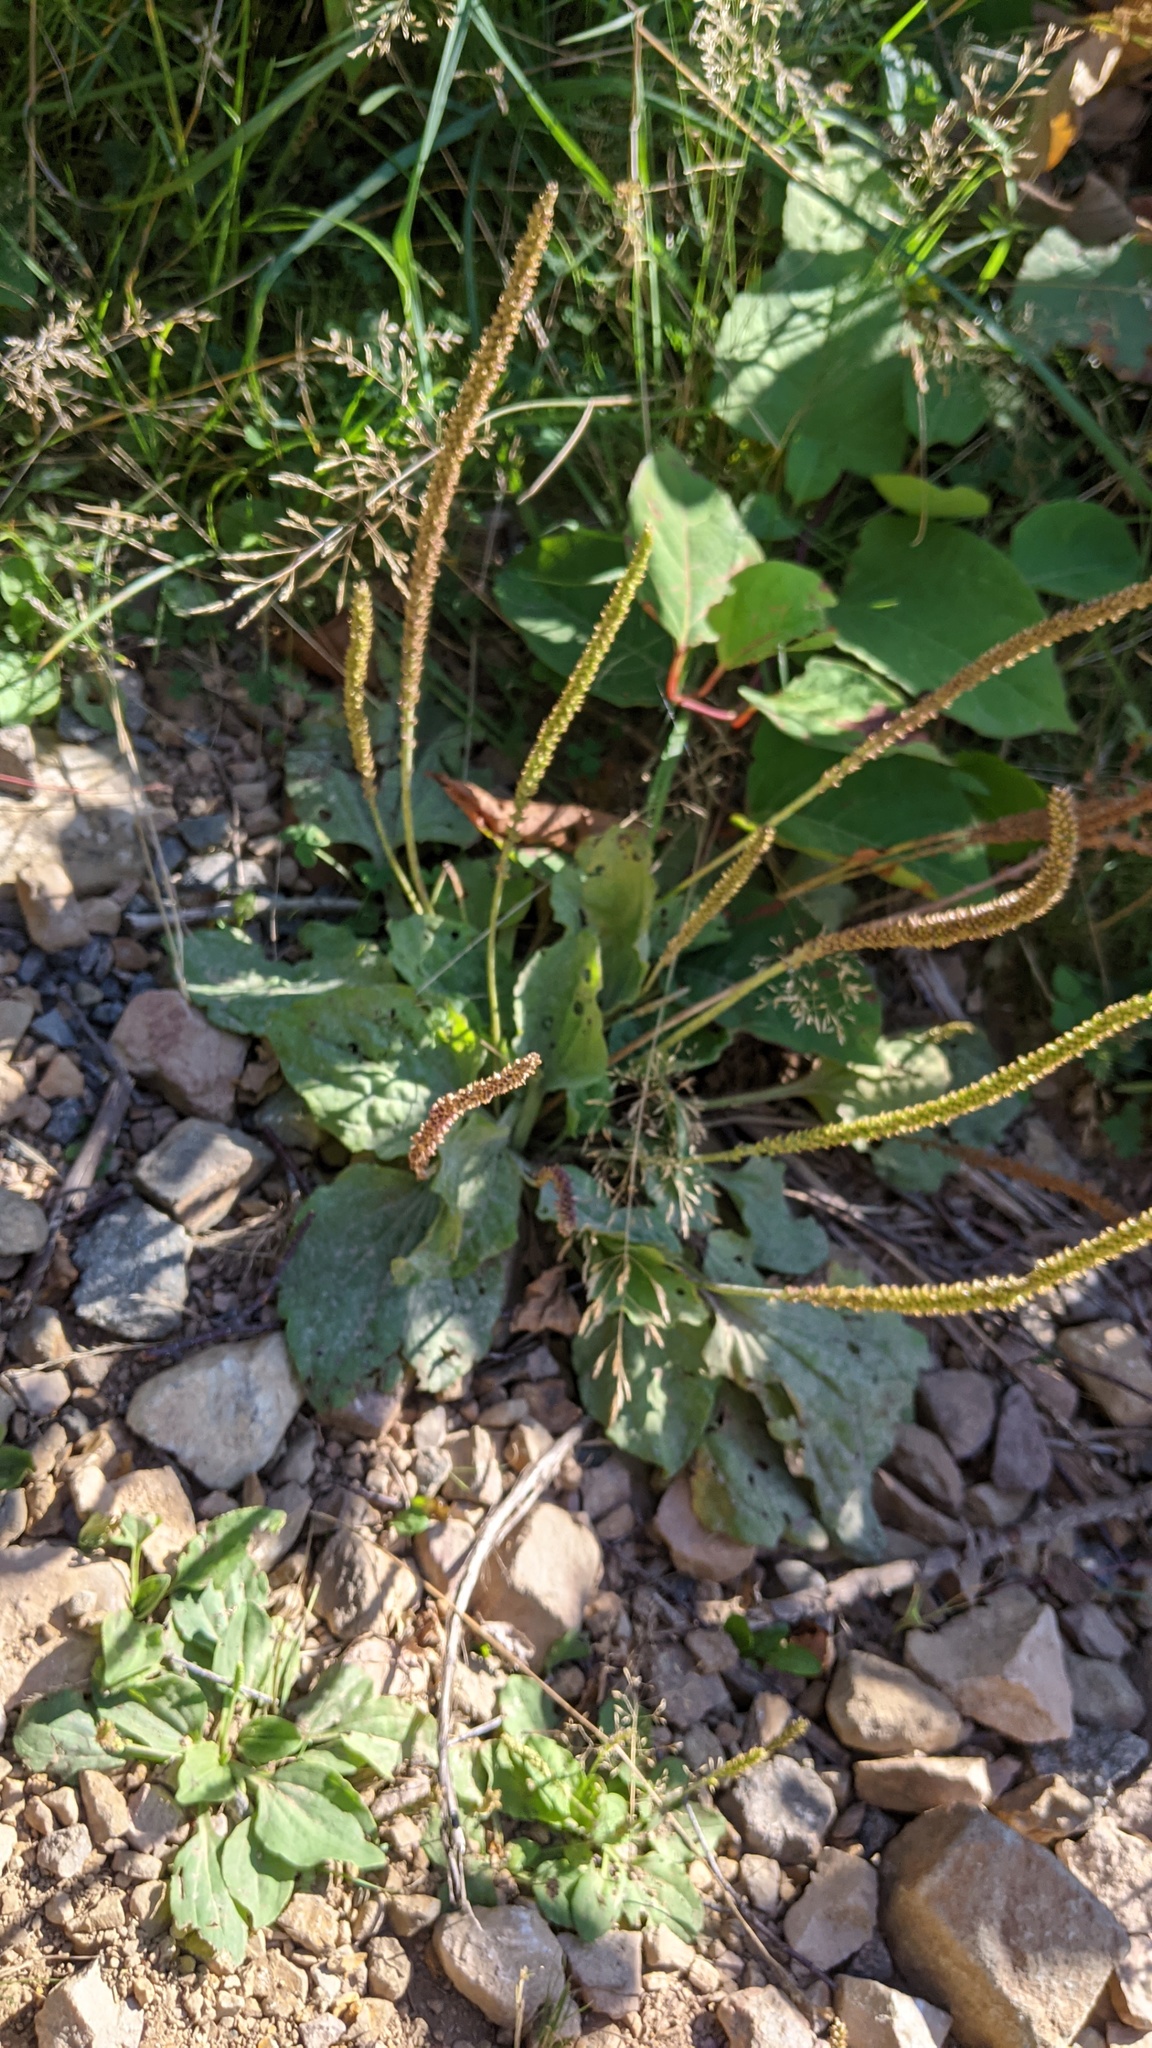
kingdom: Plantae
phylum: Tracheophyta
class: Magnoliopsida
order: Lamiales
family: Plantaginaceae
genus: Plantago
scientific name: Plantago major
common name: Common plantain
